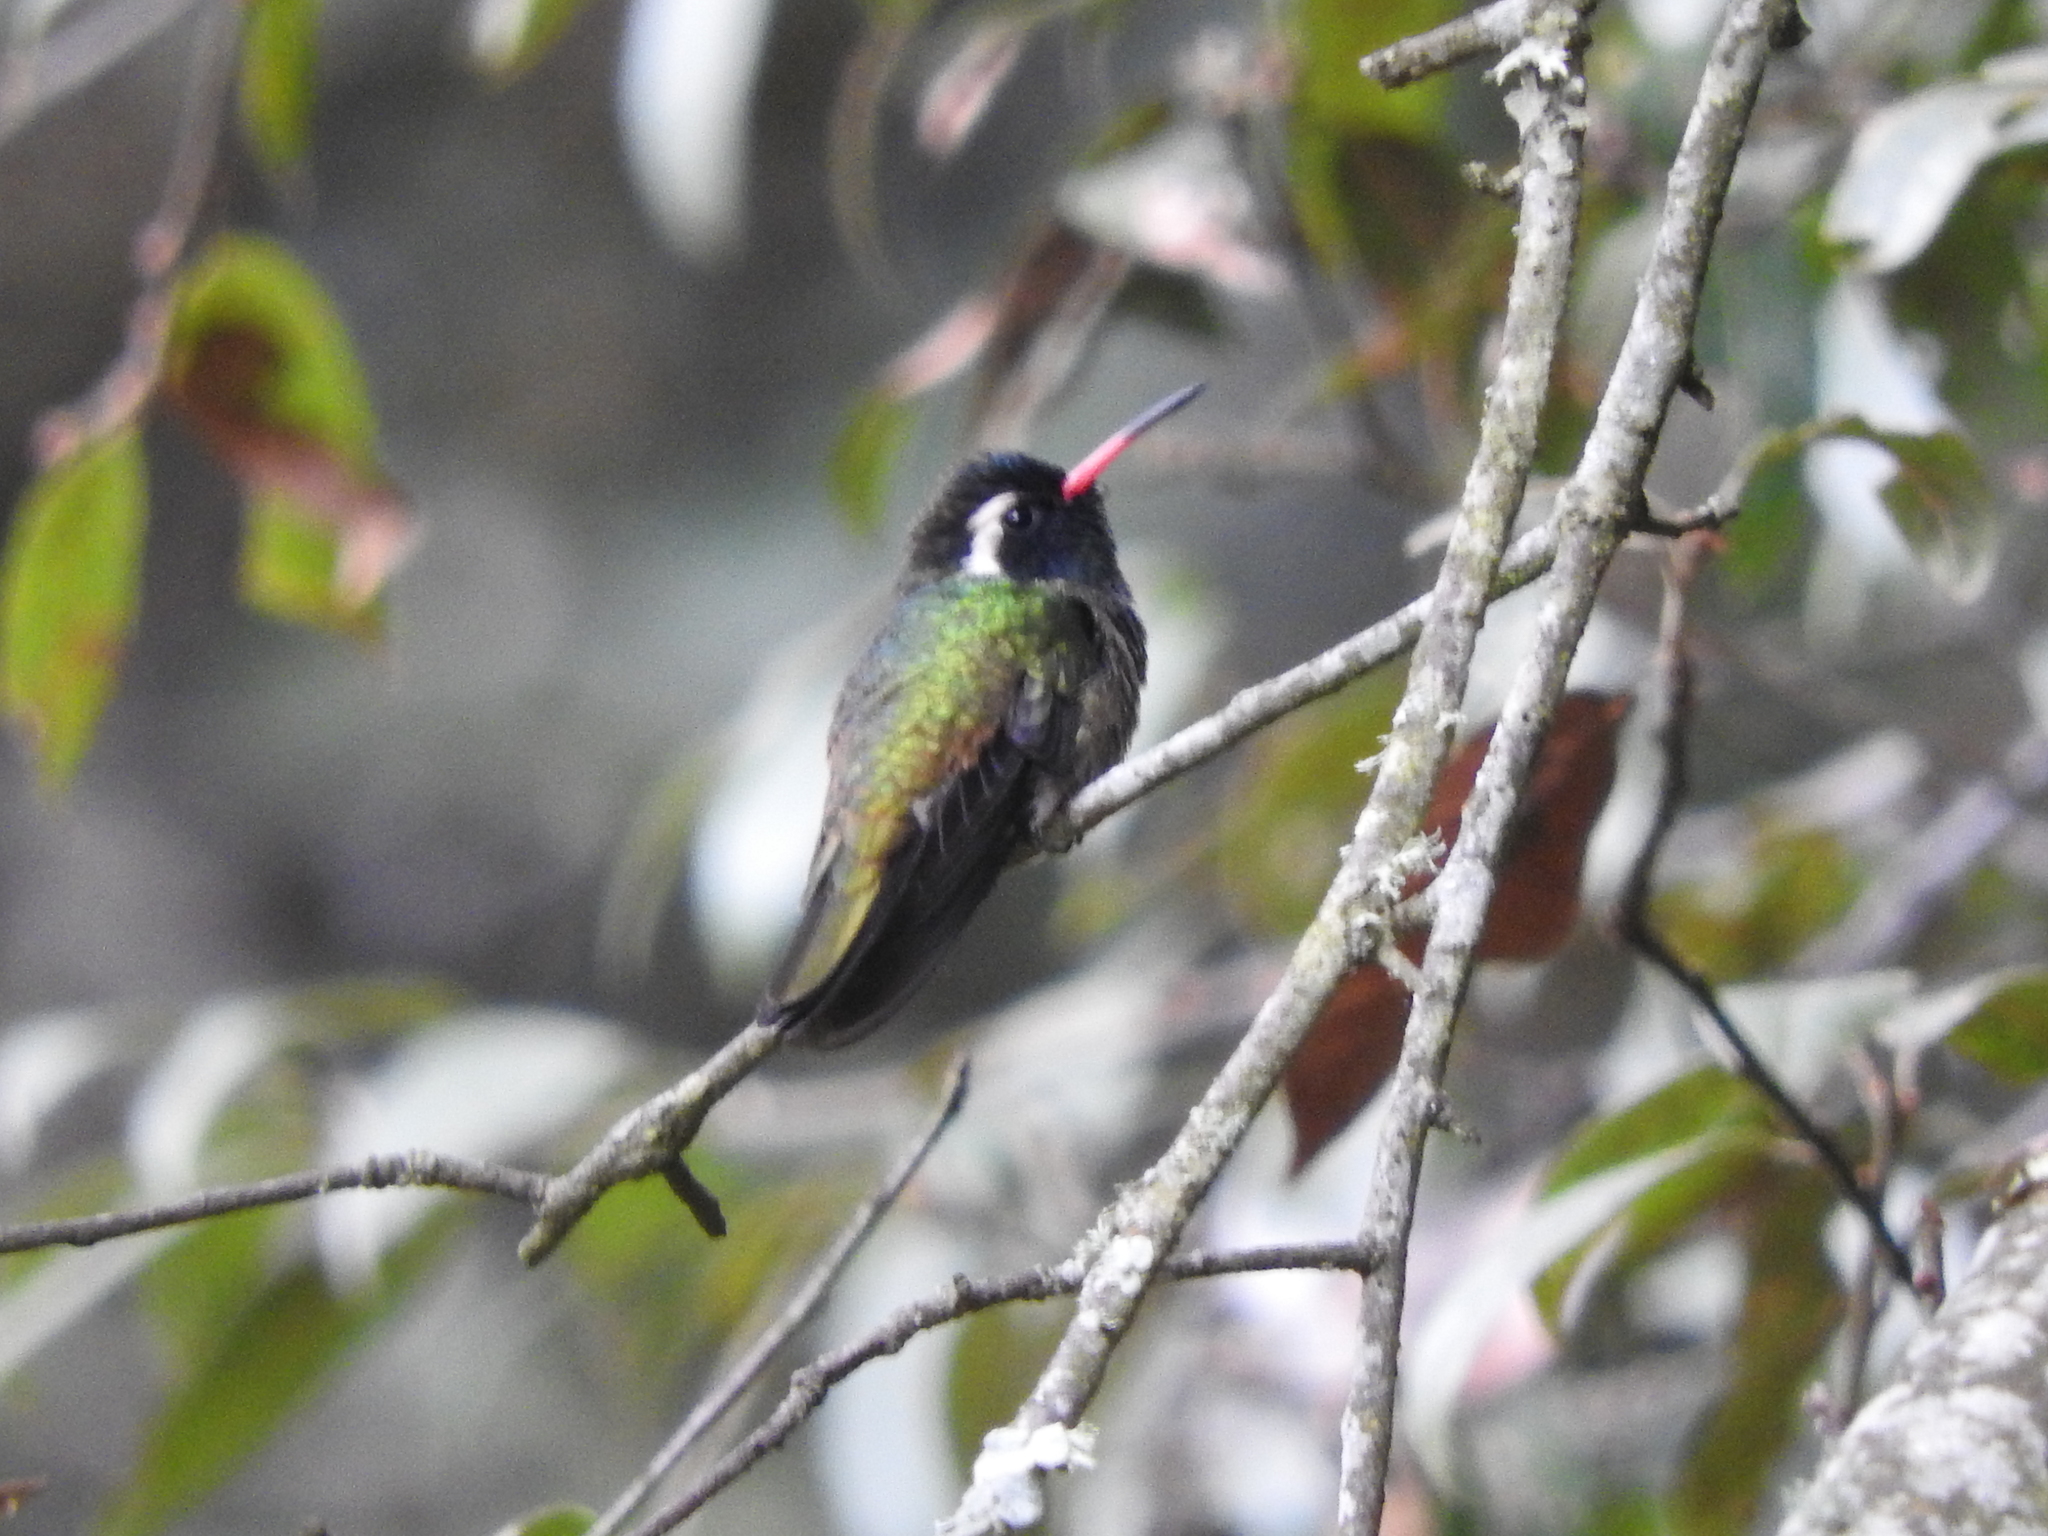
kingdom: Animalia
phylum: Chordata
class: Aves
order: Apodiformes
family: Trochilidae
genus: Basilinna
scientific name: Basilinna leucotis
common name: White-eared hummingbird
